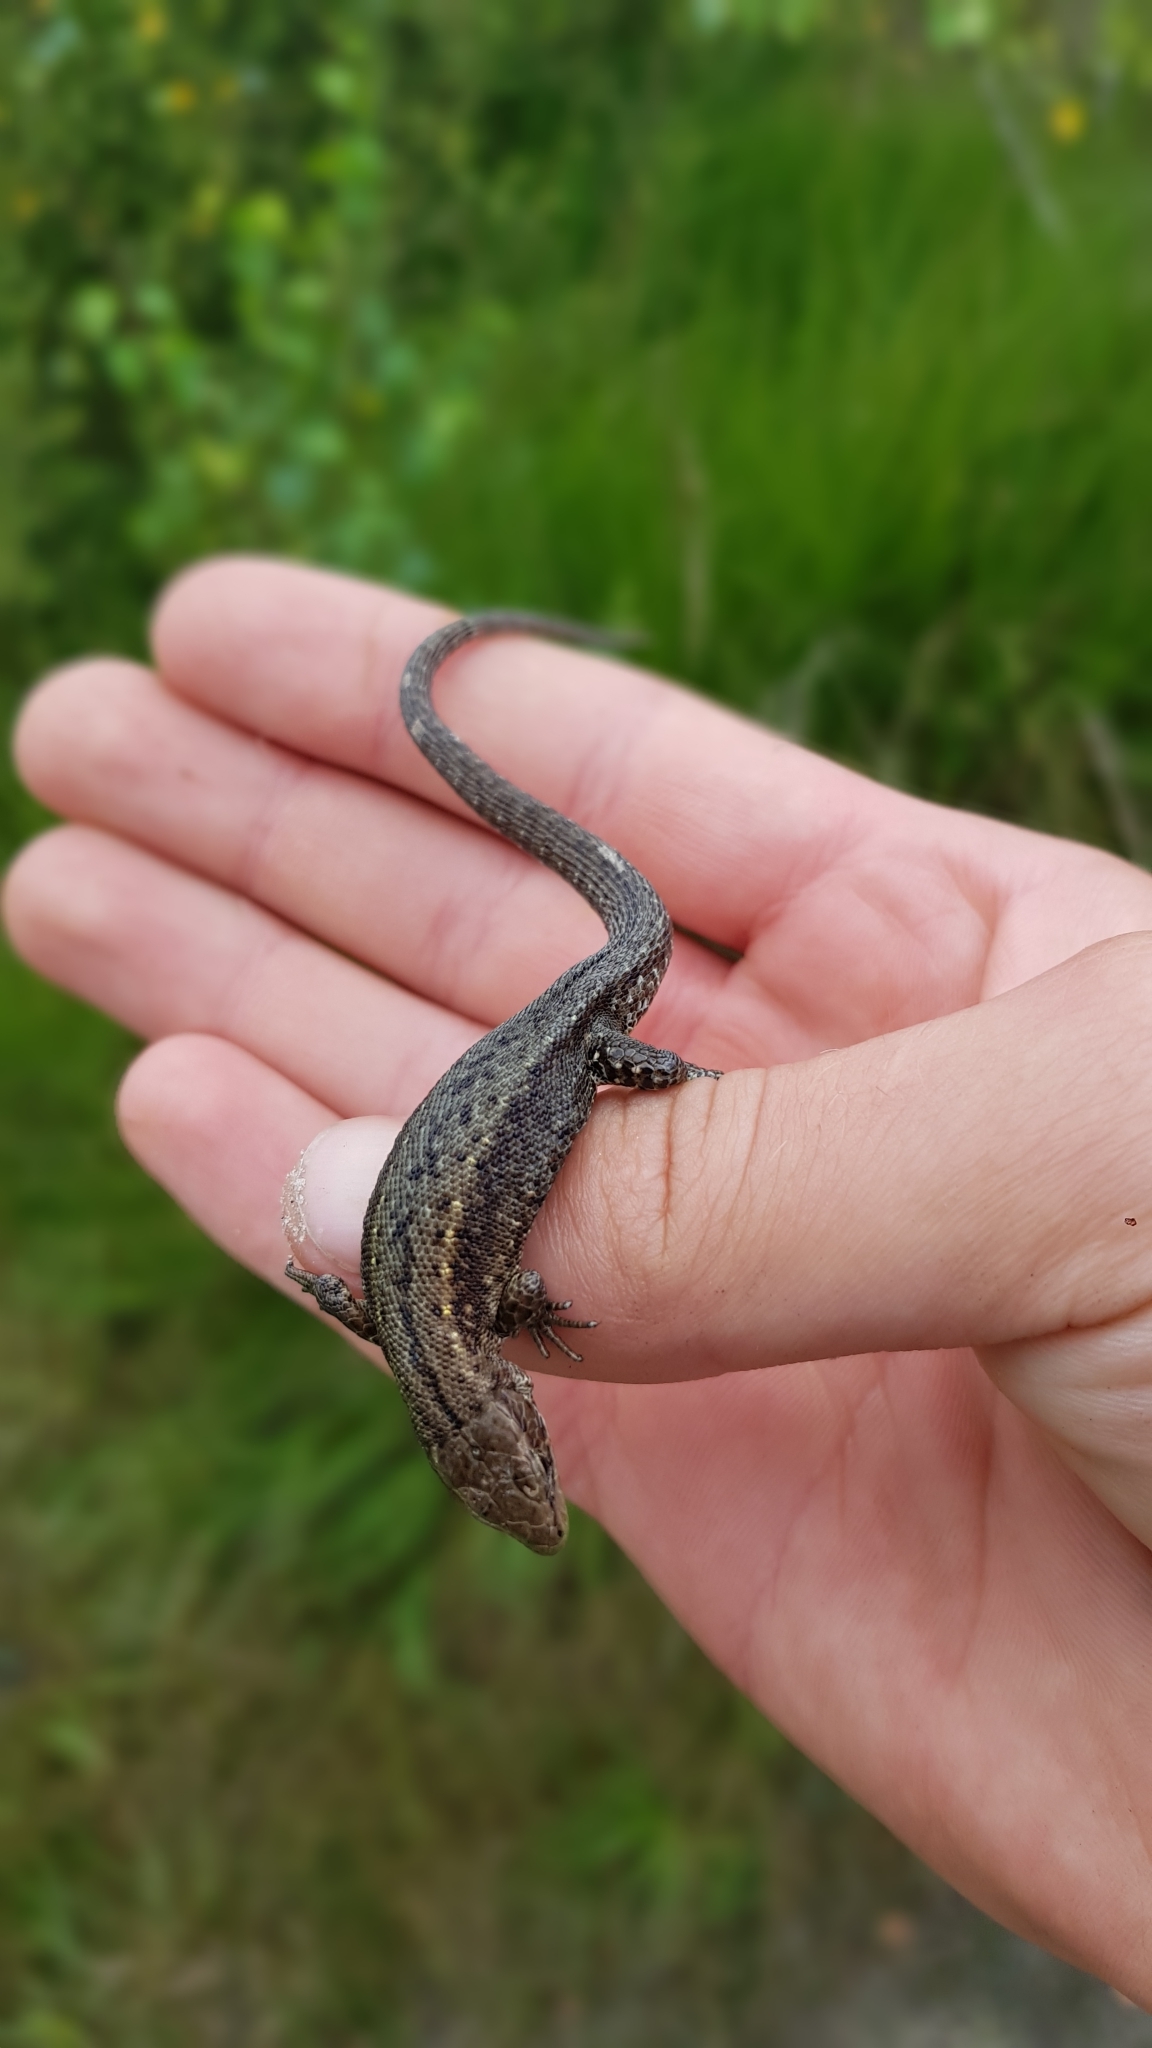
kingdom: Animalia
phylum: Chordata
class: Squamata
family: Lacertidae
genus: Zootoca
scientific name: Zootoca vivipara
